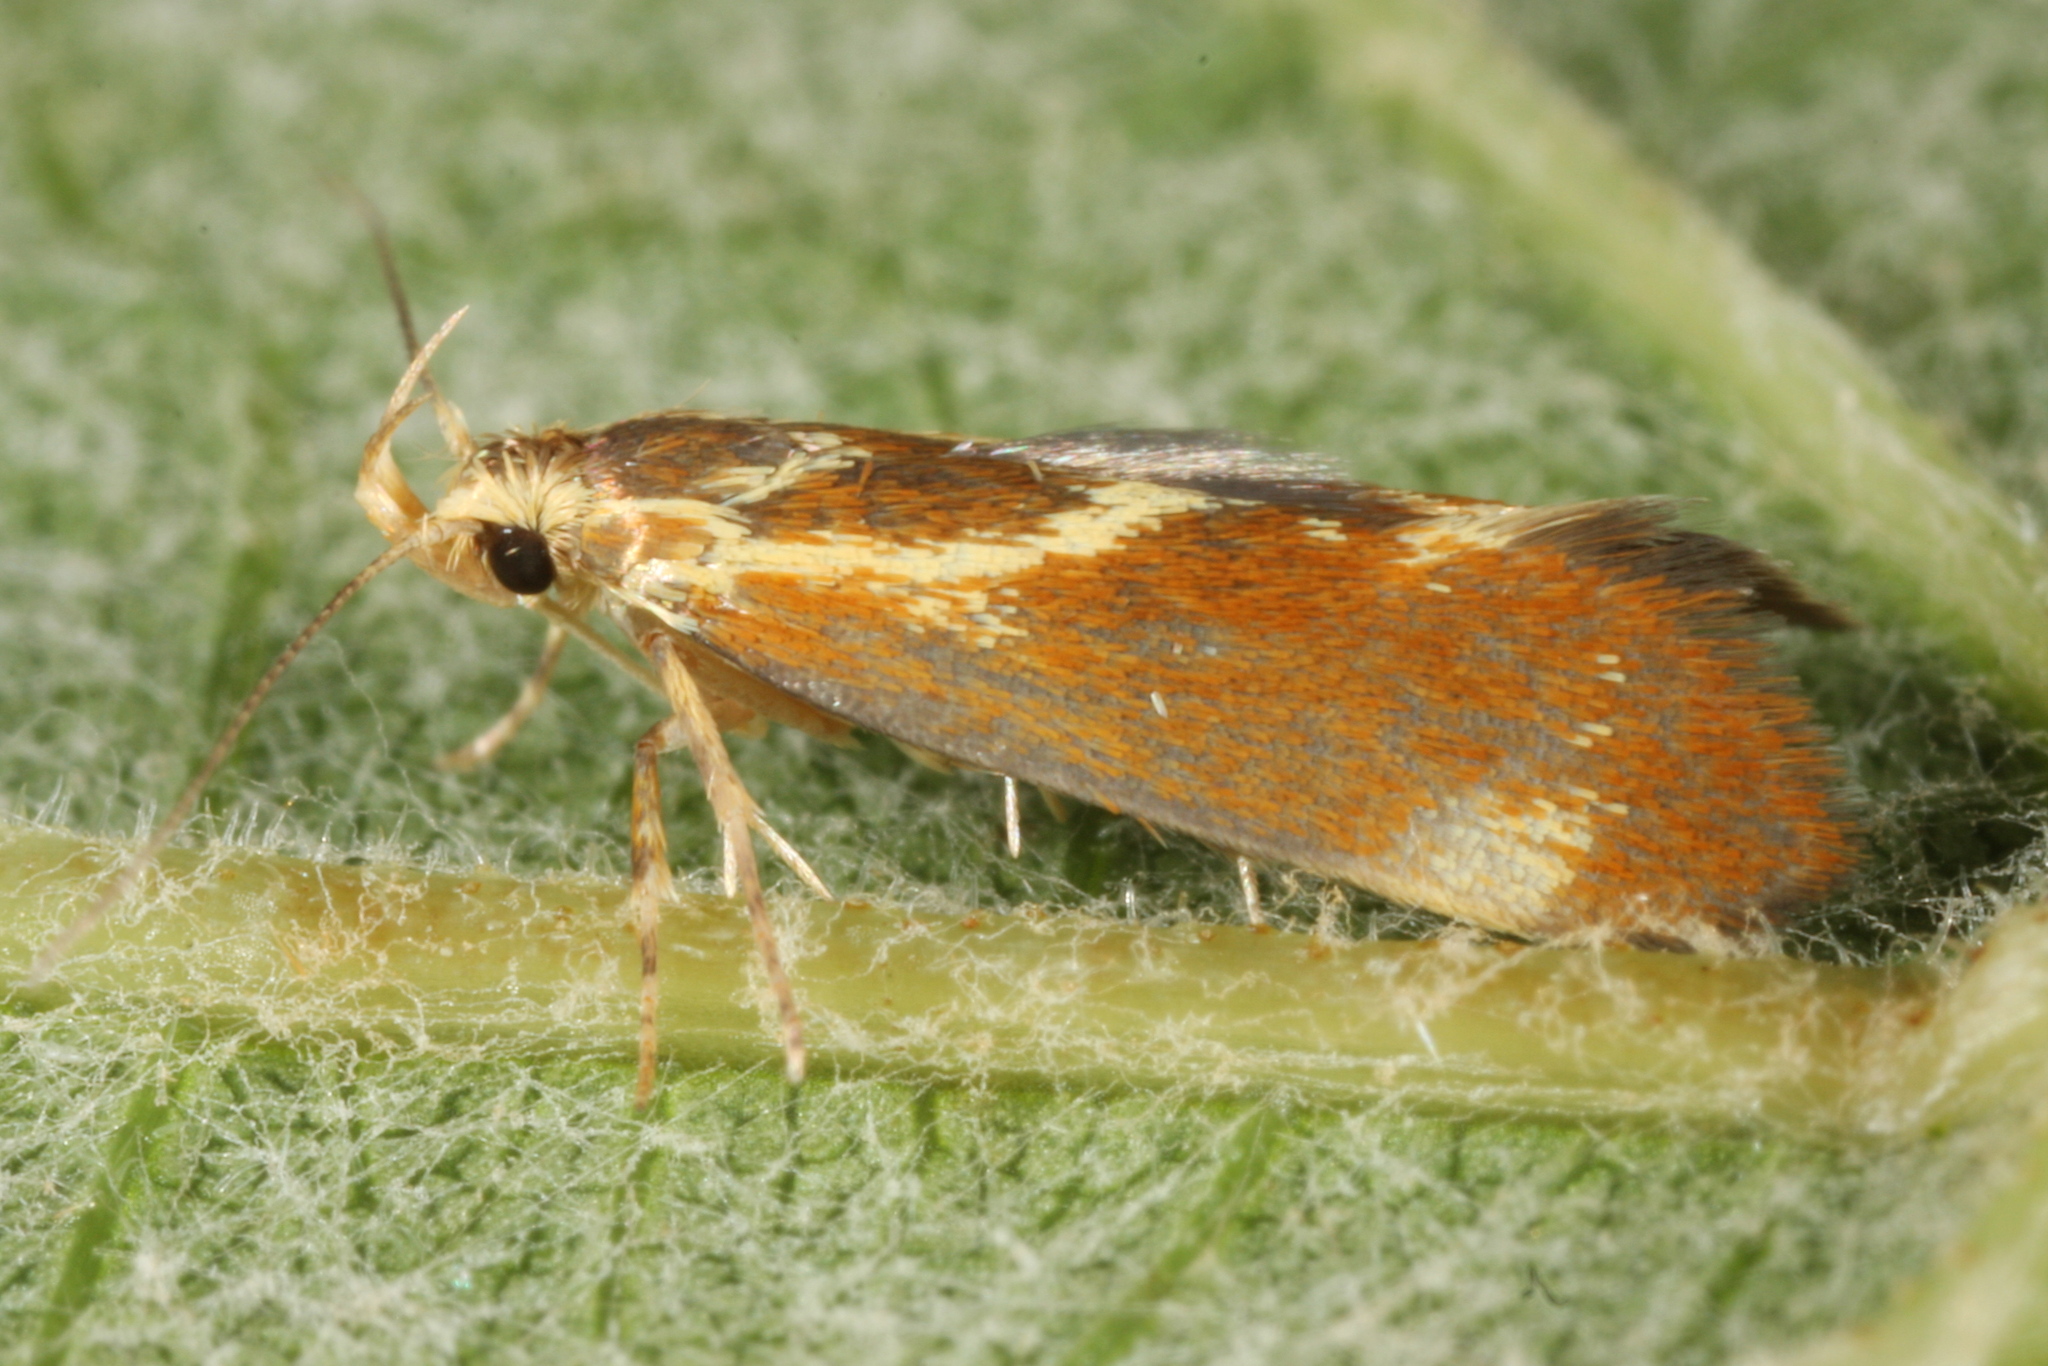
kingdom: Animalia
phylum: Arthropoda
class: Insecta
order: Lepidoptera
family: Oecophoridae
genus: Borkhausenia
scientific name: Borkhausenia italica
